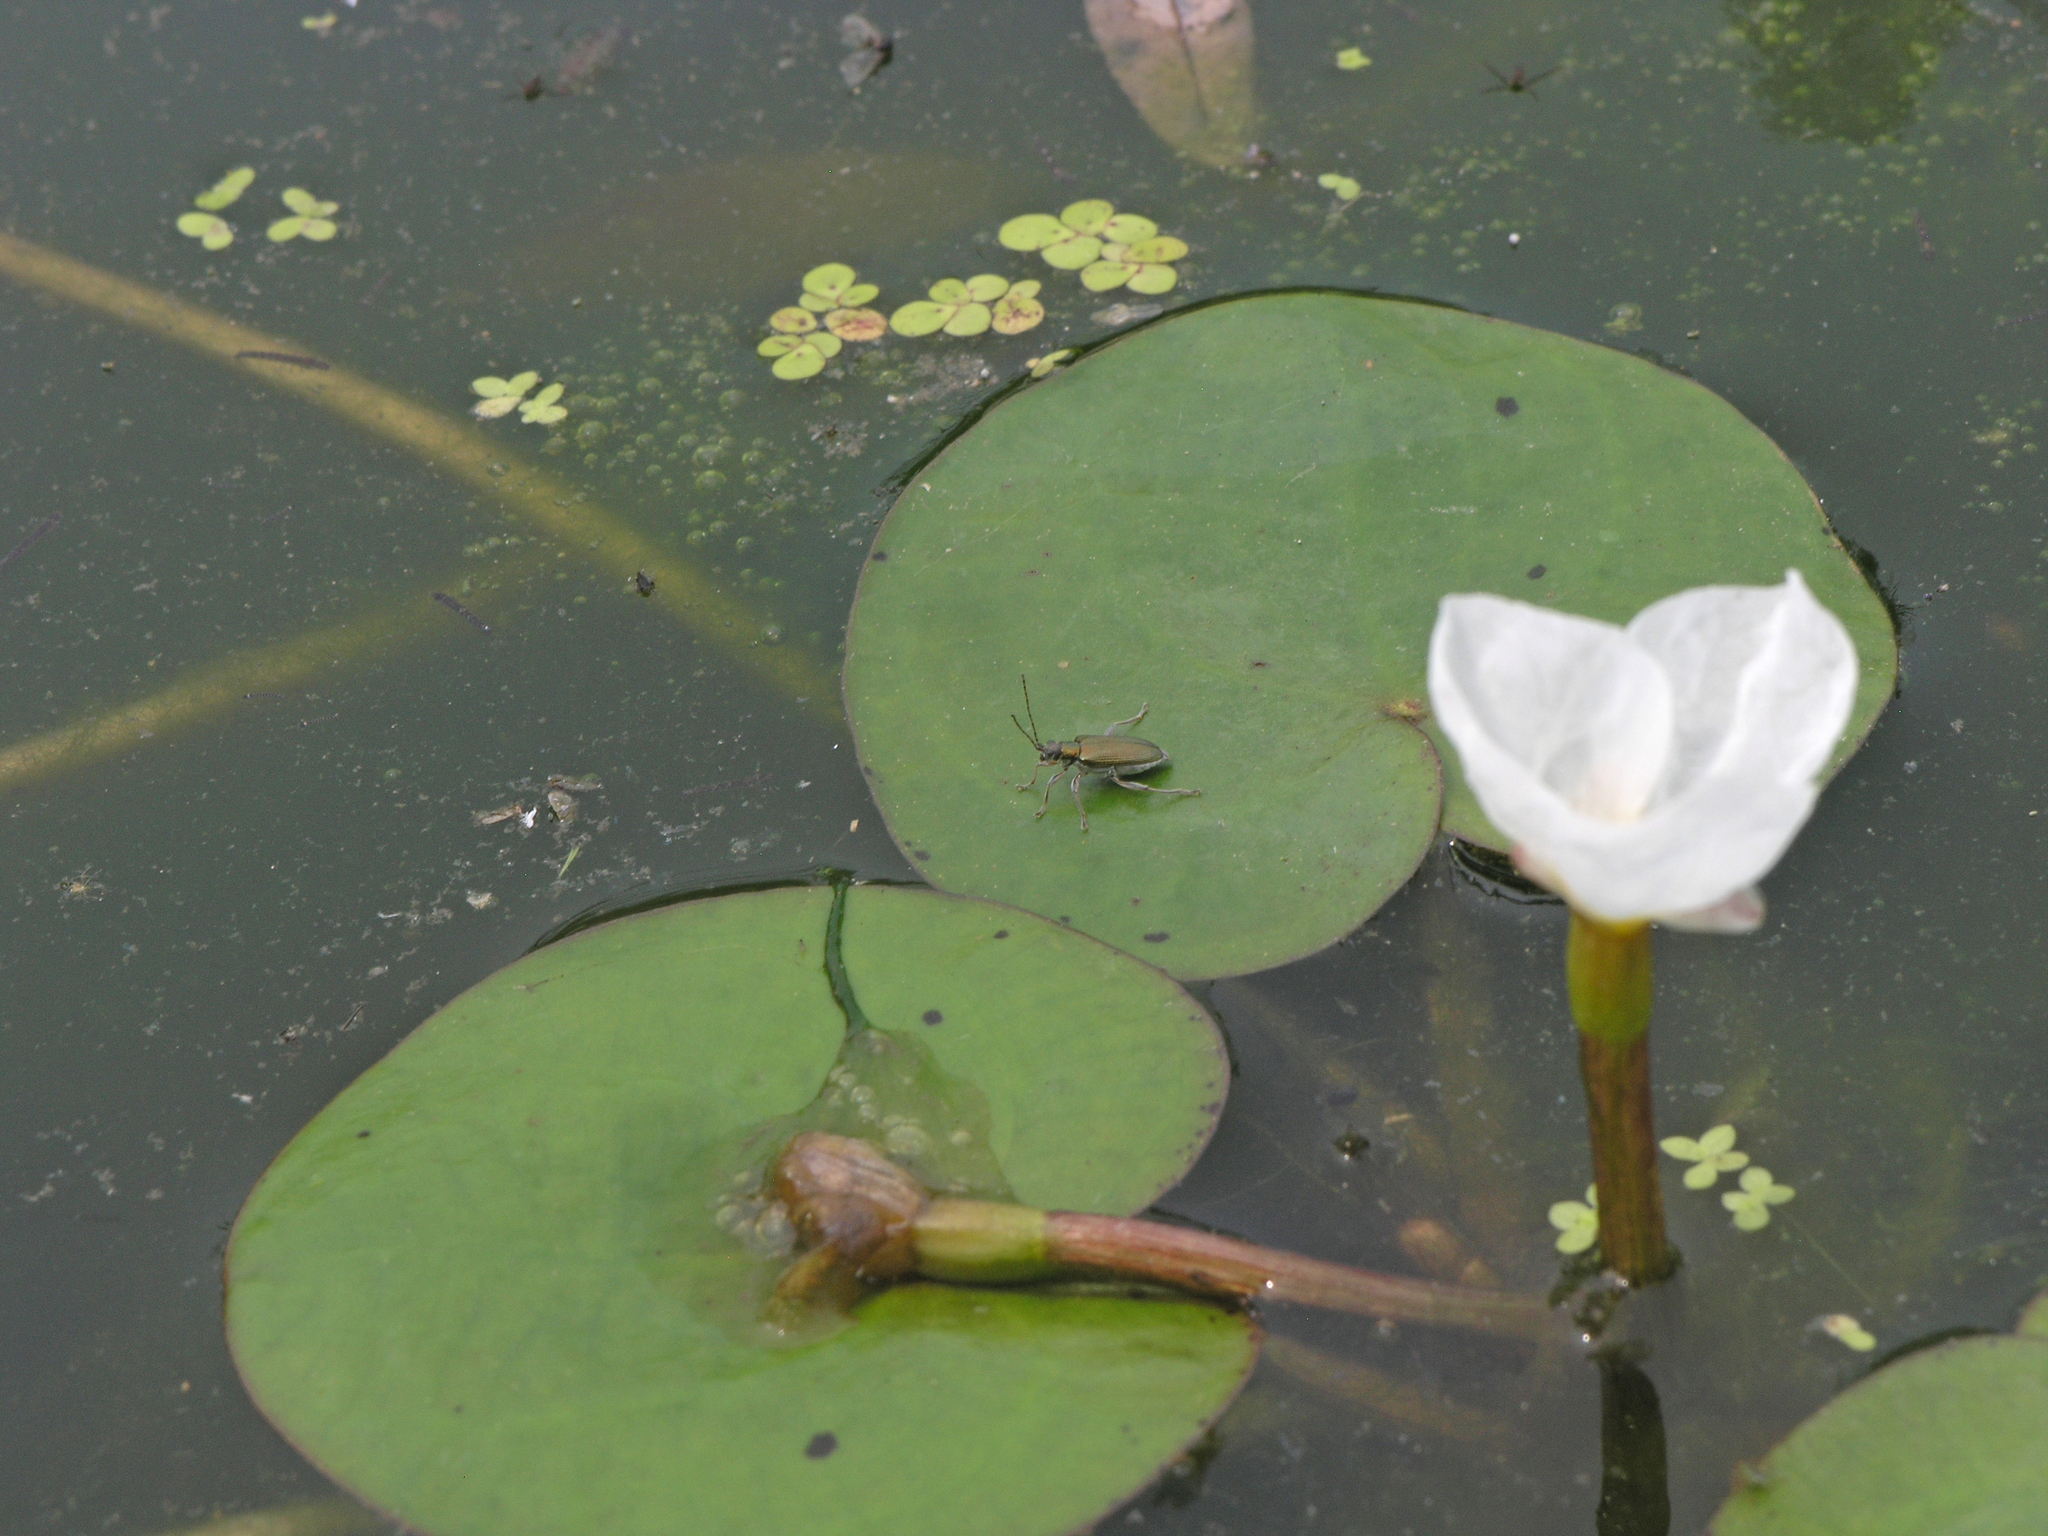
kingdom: Plantae
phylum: Tracheophyta
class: Liliopsida
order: Alismatales
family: Hydrocharitaceae
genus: Hydrocharis
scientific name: Hydrocharis dubia
